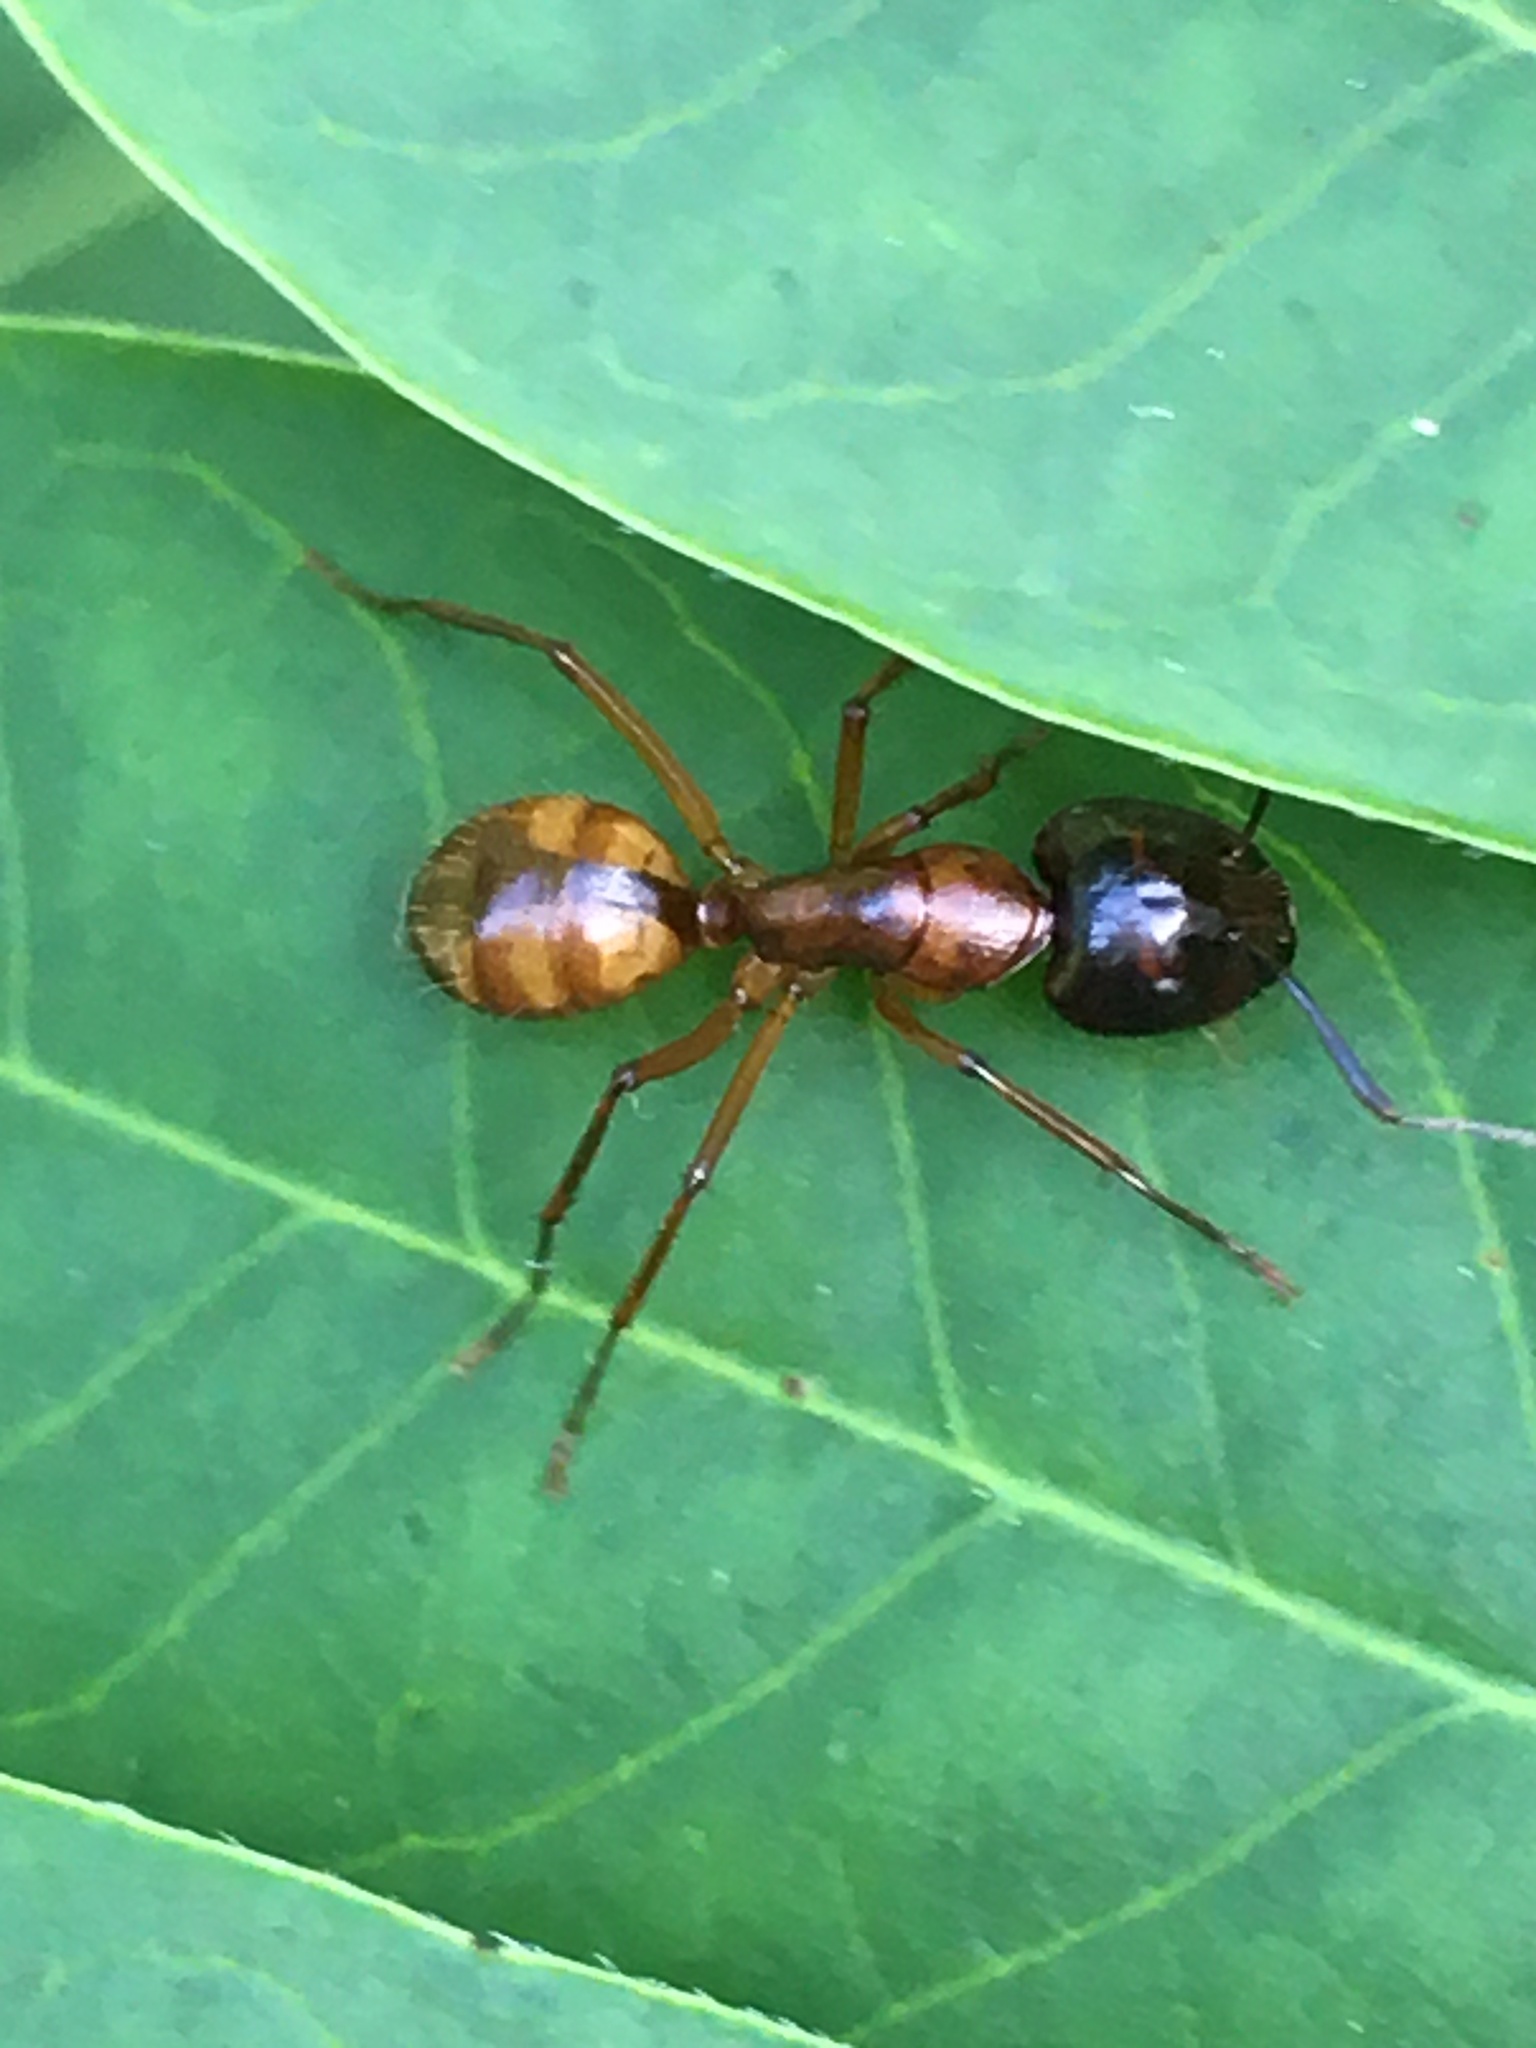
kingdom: Animalia
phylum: Arthropoda
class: Insecta
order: Hymenoptera
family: Formicidae
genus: Camponotus
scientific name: Camponotus americanus
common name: American carpenter ant
